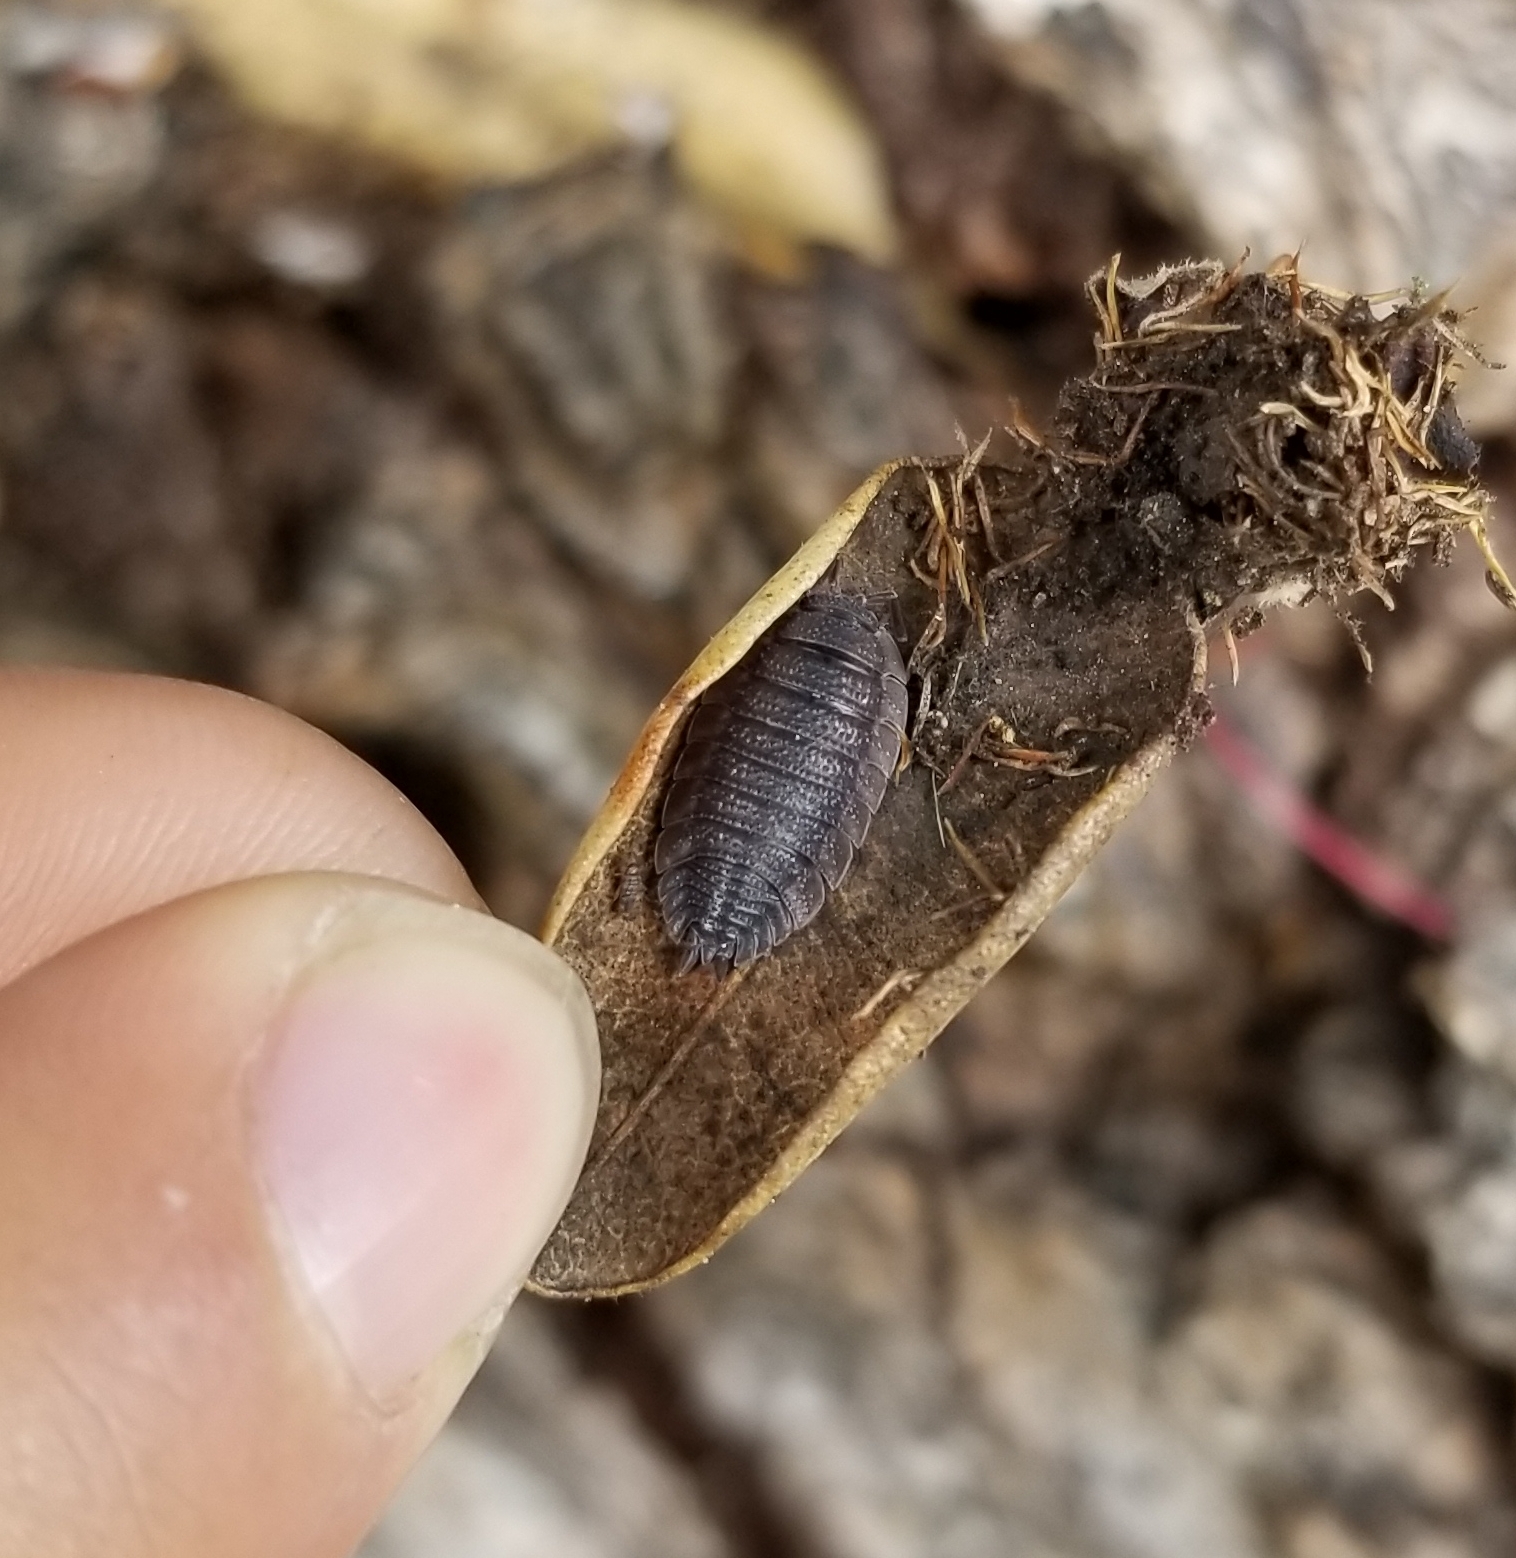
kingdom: Animalia
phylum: Arthropoda
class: Malacostraca
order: Isopoda
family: Porcellionidae
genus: Porcellio
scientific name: Porcellio scaber
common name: Common rough woodlouse
